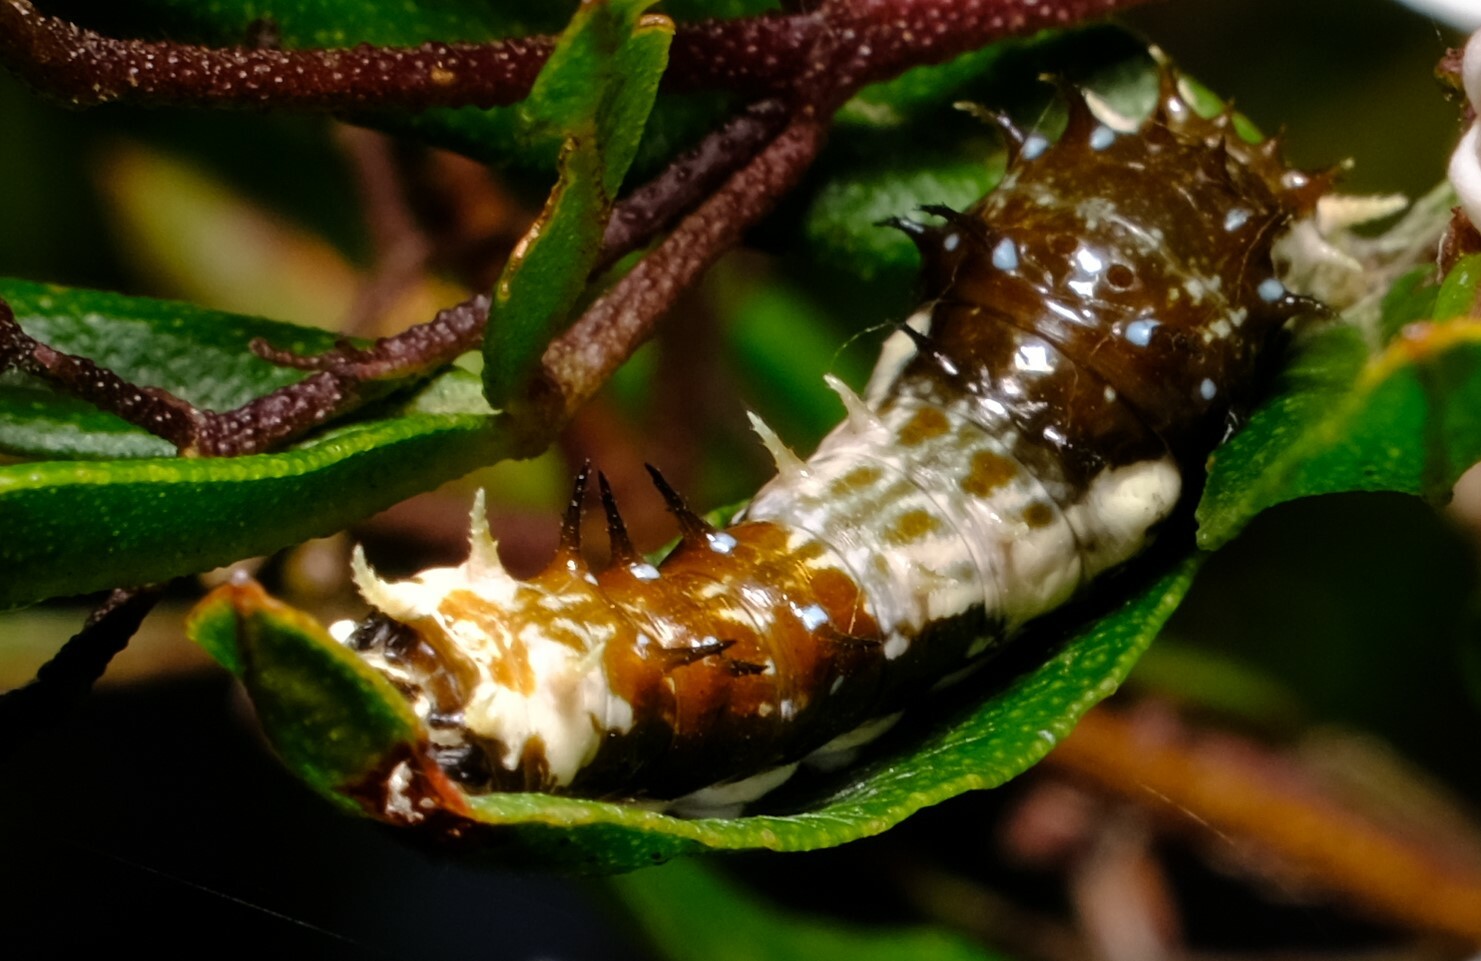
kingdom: Animalia
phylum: Arthropoda
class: Insecta
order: Lepidoptera
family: Papilionidae
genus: Papilio
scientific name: Papilio aegeus
